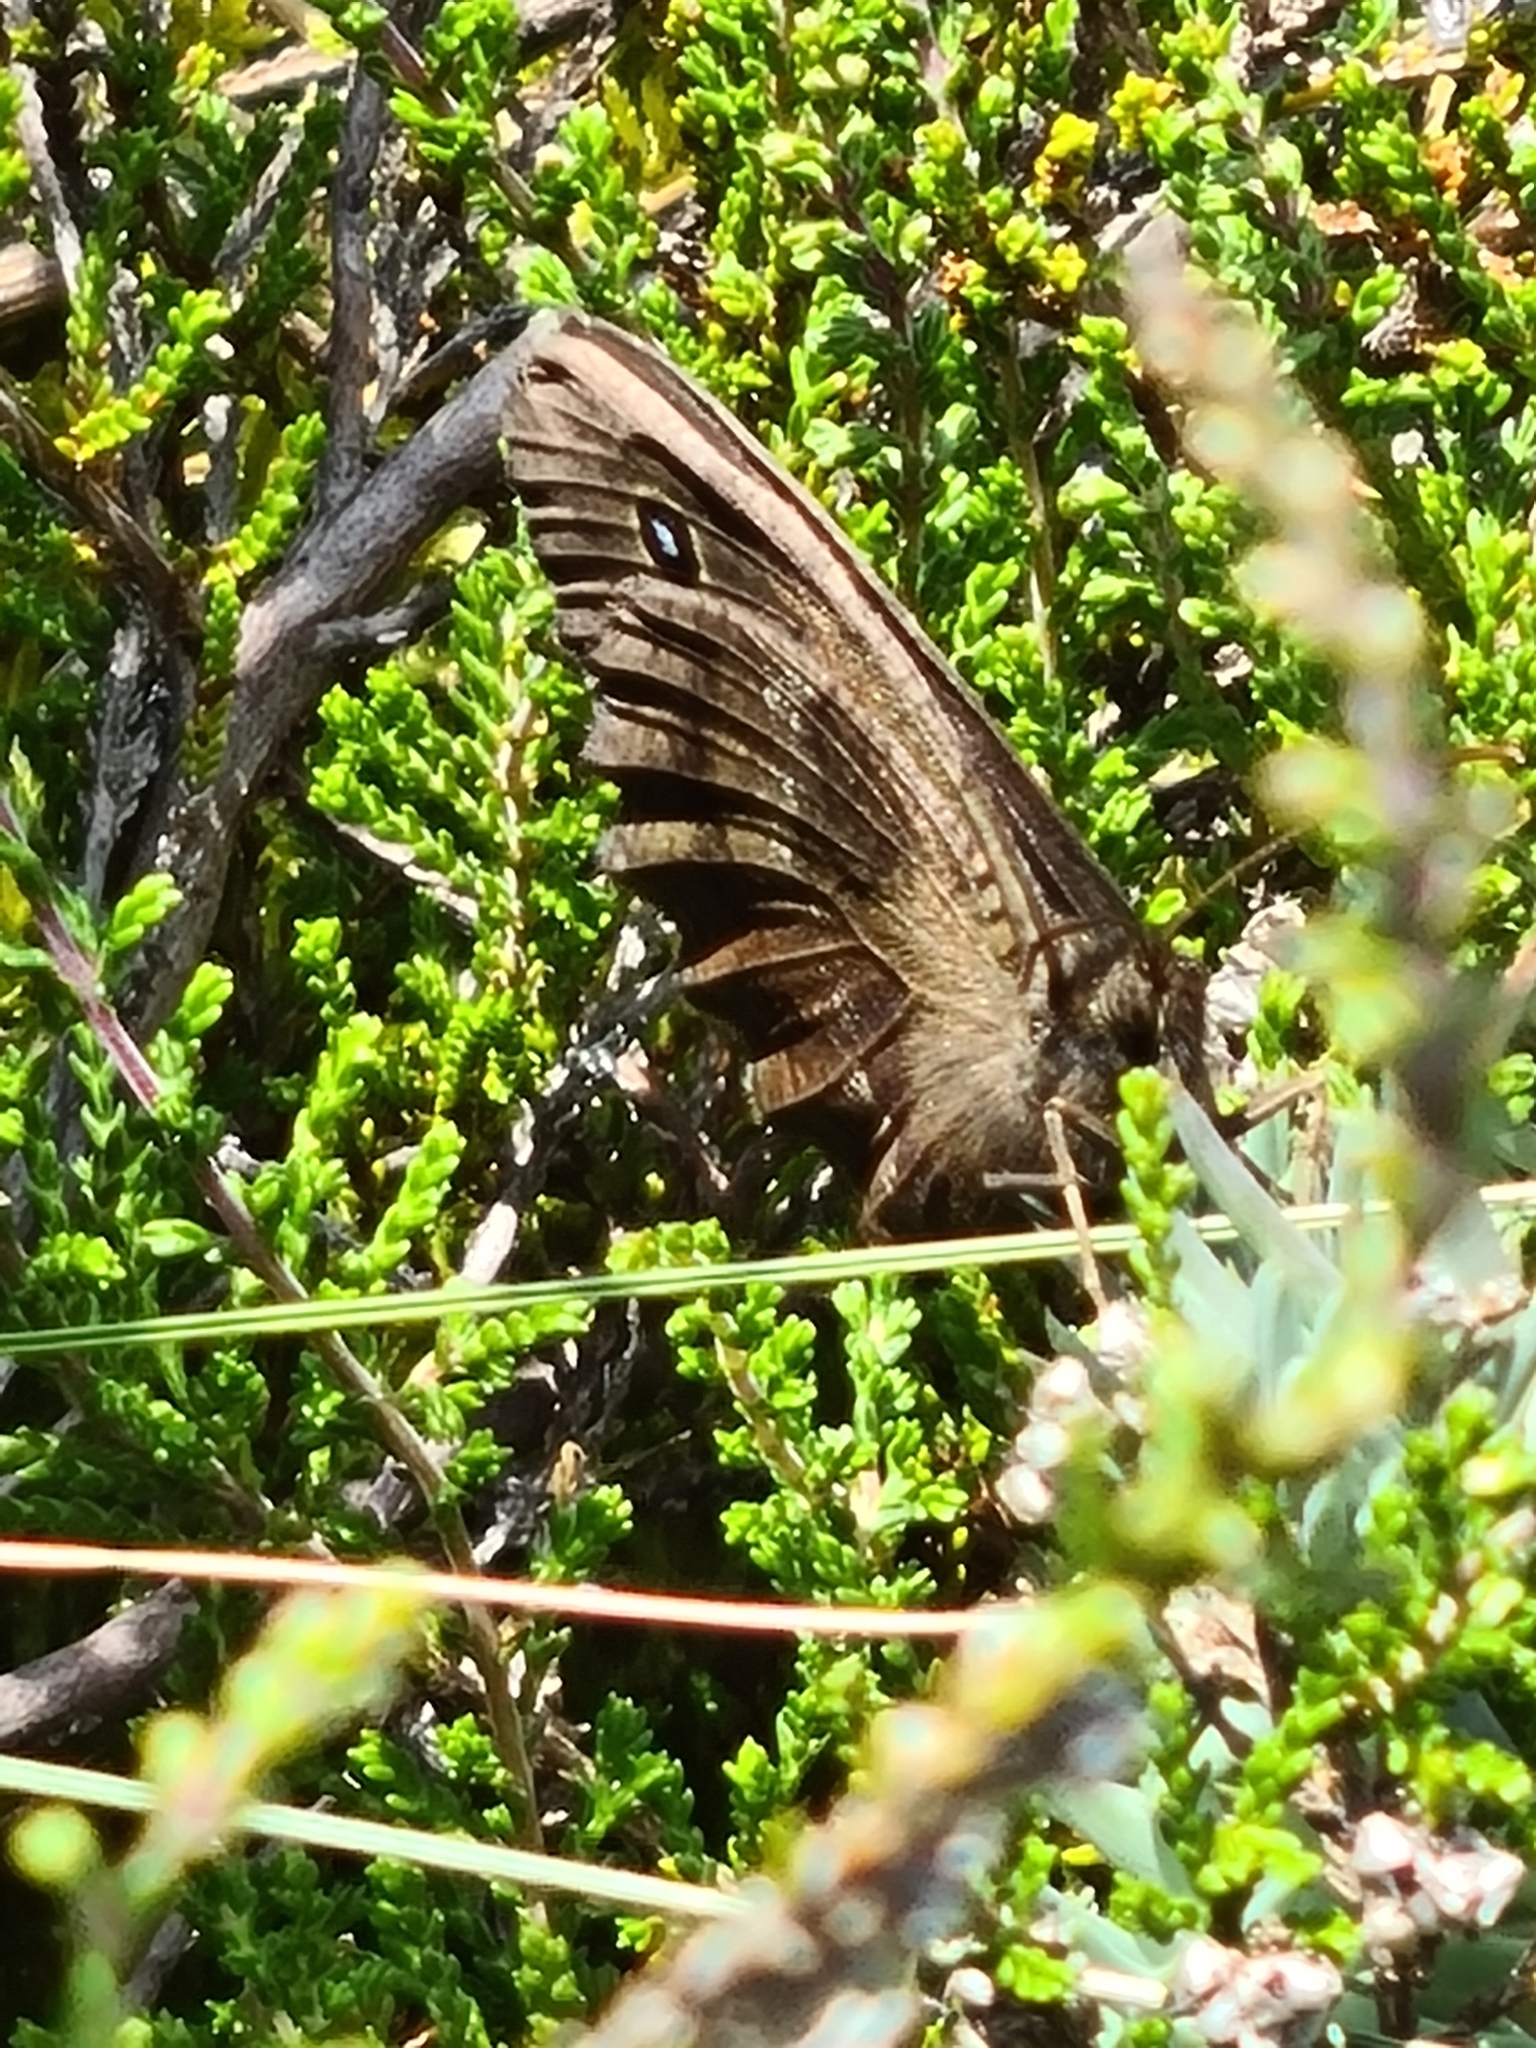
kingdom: Animalia
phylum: Arthropoda
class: Insecta
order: Lepidoptera
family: Nymphalidae
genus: Minois
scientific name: Minois dryas
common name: Dryad
